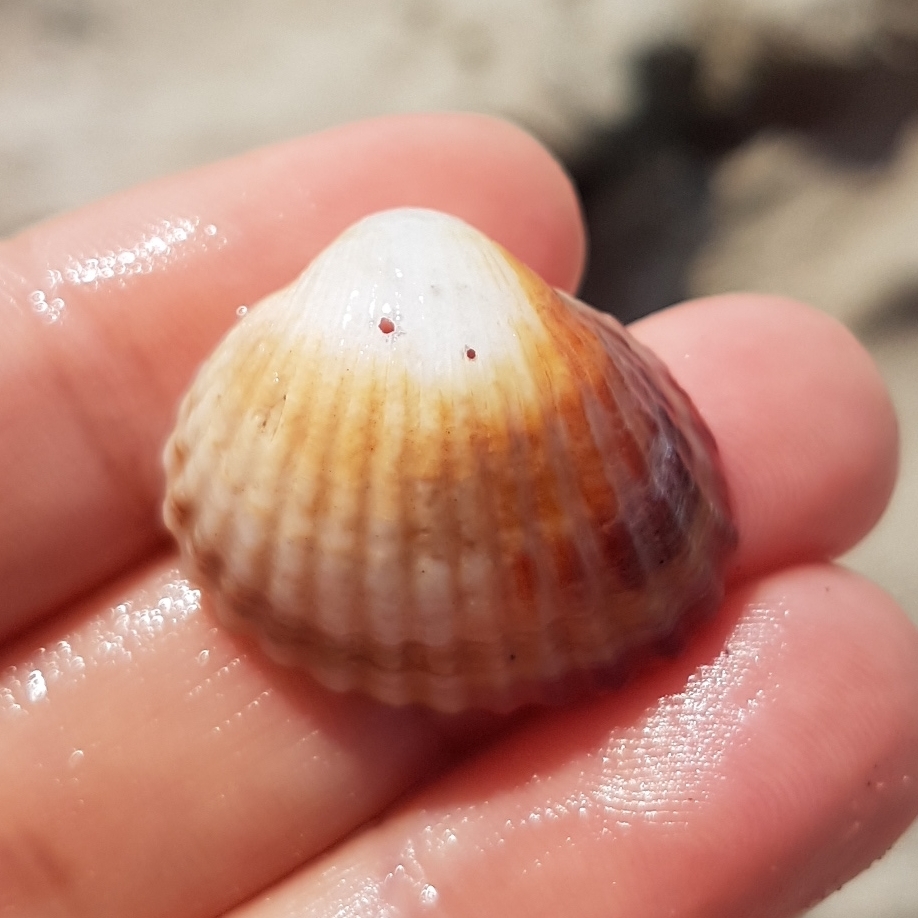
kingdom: Animalia
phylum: Mollusca
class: Bivalvia
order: Cardiida
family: Cardiidae
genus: Cerastoderma
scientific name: Cerastoderma glaucum
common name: Lagoon cockle
